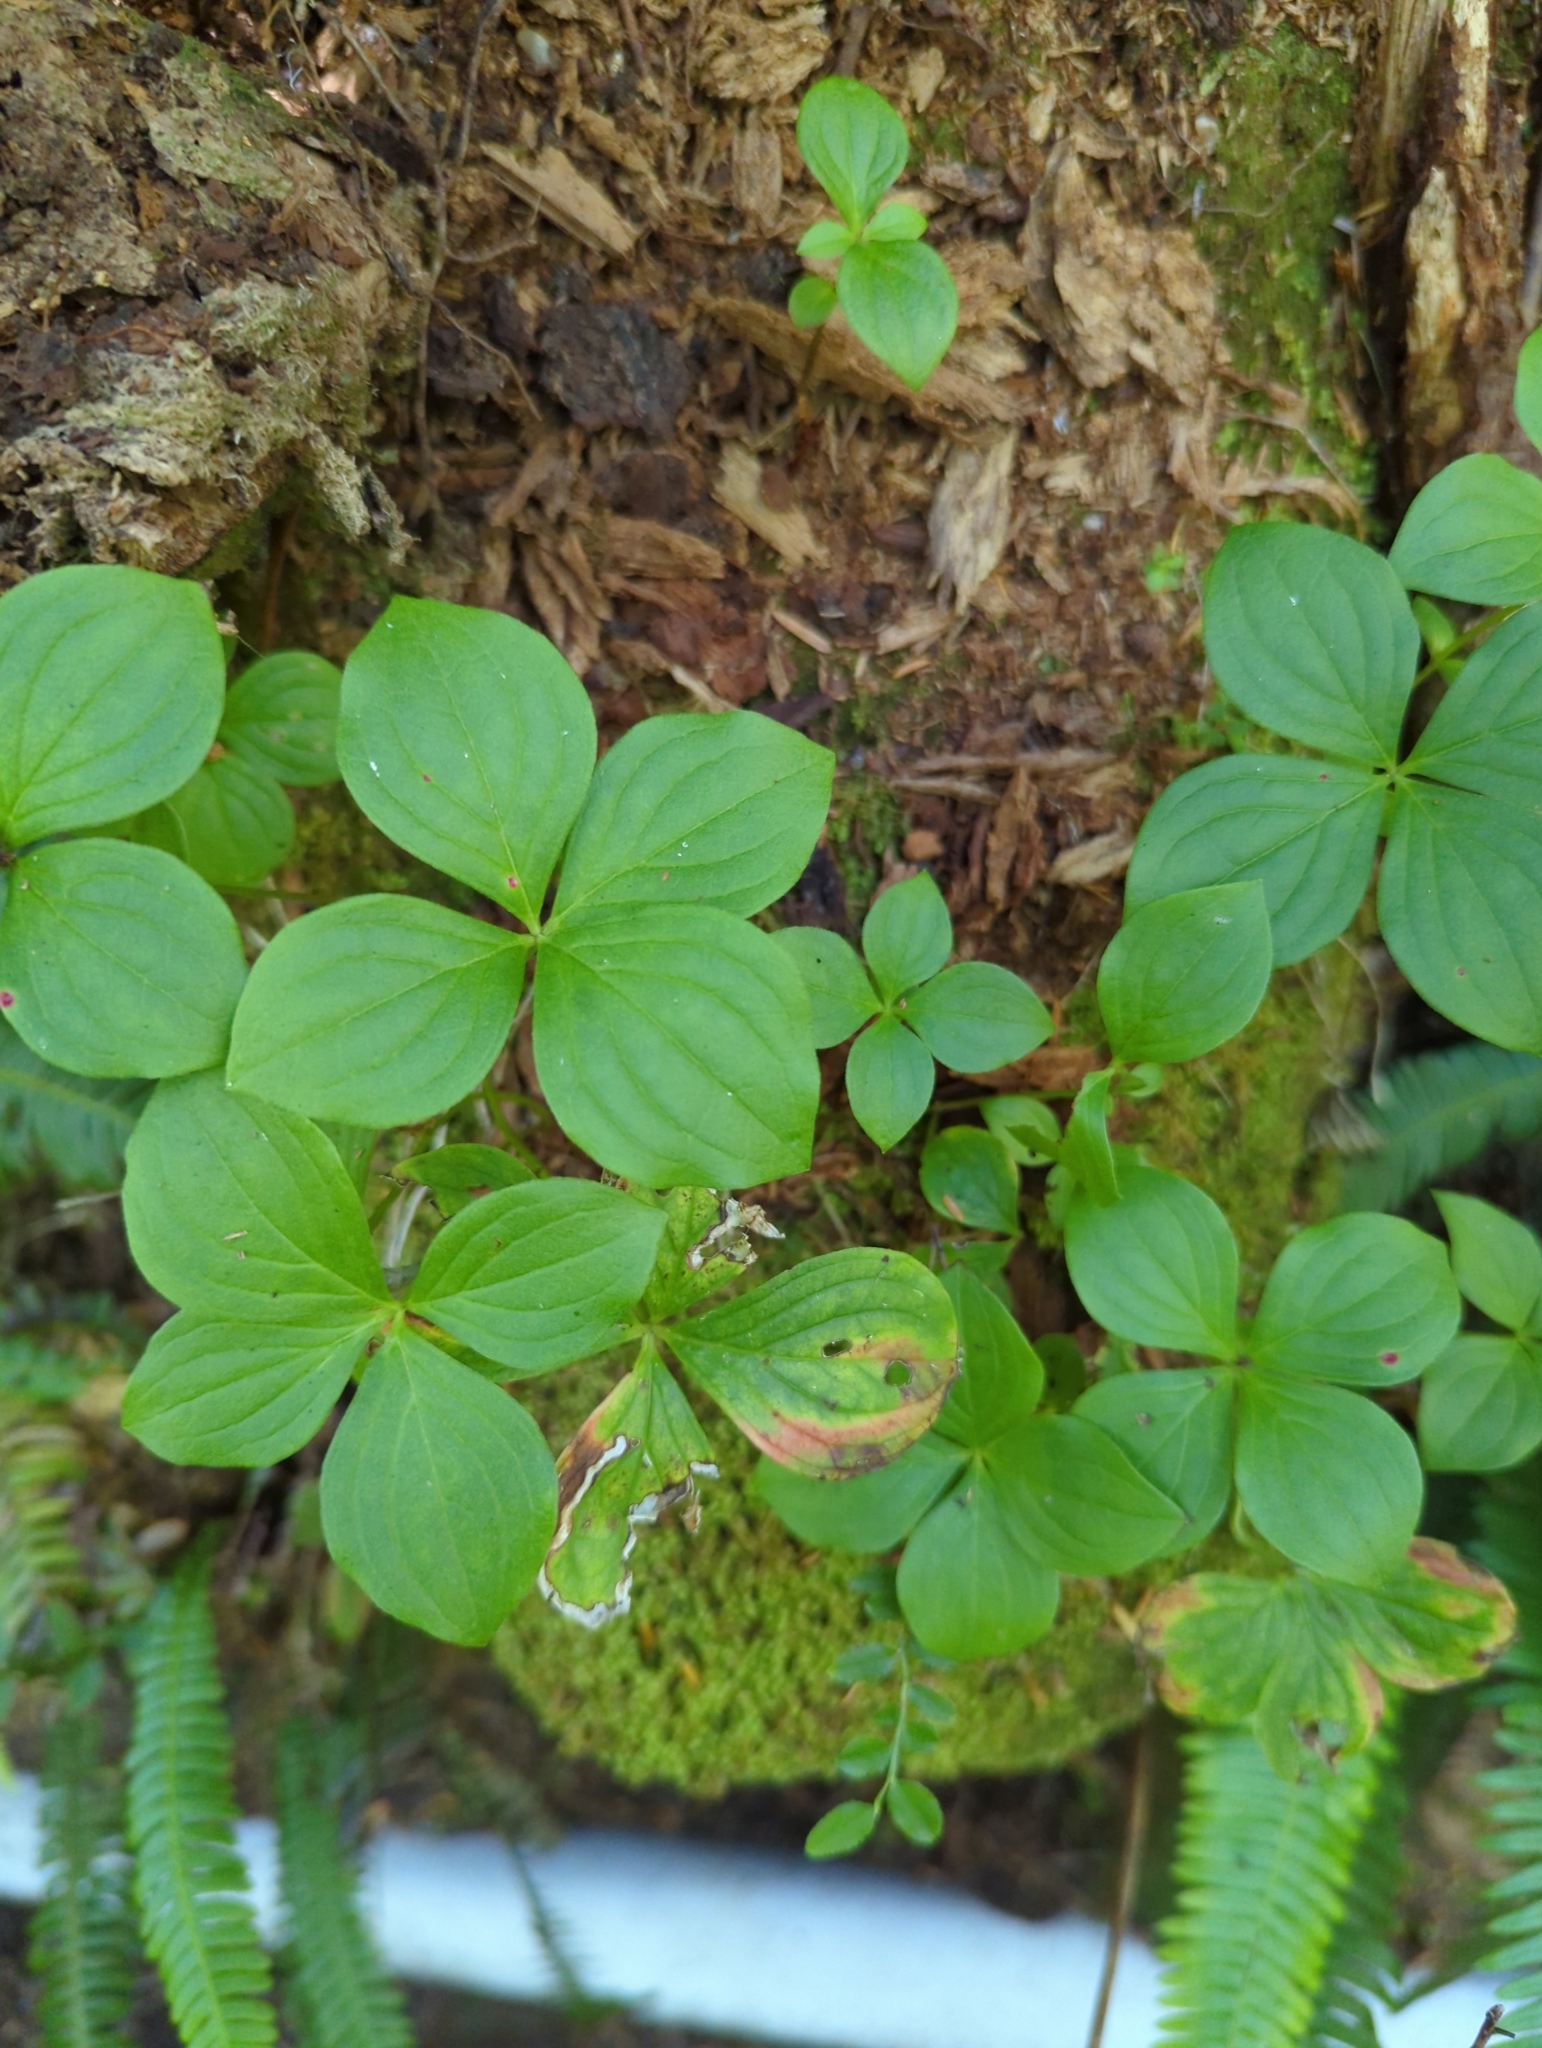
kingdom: Plantae
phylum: Tracheophyta
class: Magnoliopsida
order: Cornales
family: Cornaceae
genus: Cornus
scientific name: Cornus unalaschkensis
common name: Alaska bunchberry
